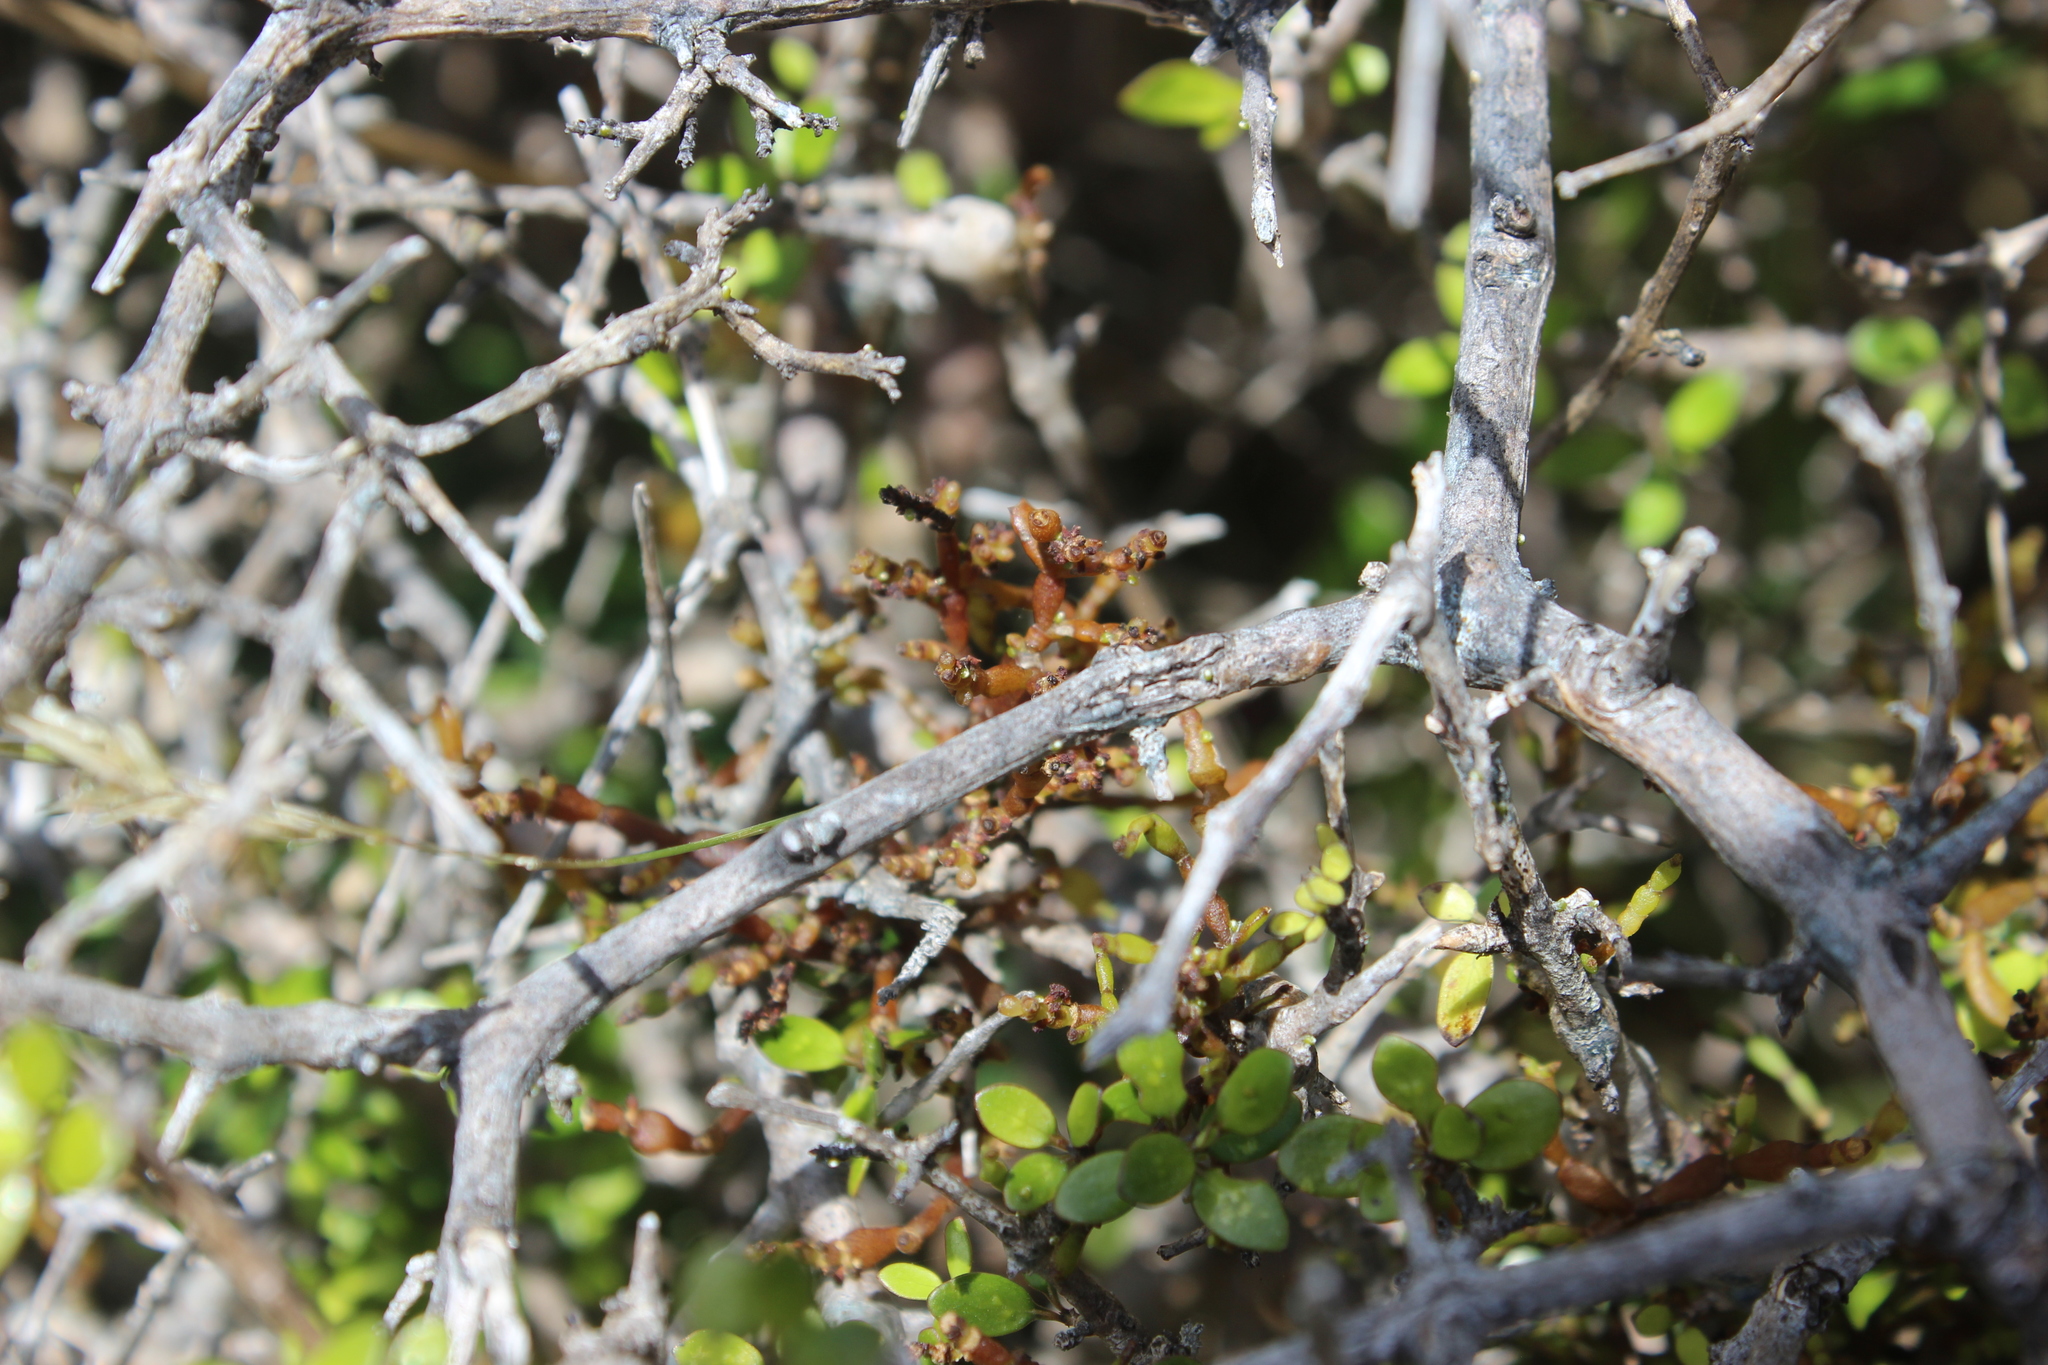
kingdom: Plantae
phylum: Tracheophyta
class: Magnoliopsida
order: Santalales
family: Viscaceae
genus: Korthalsella
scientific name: Korthalsella clavata
